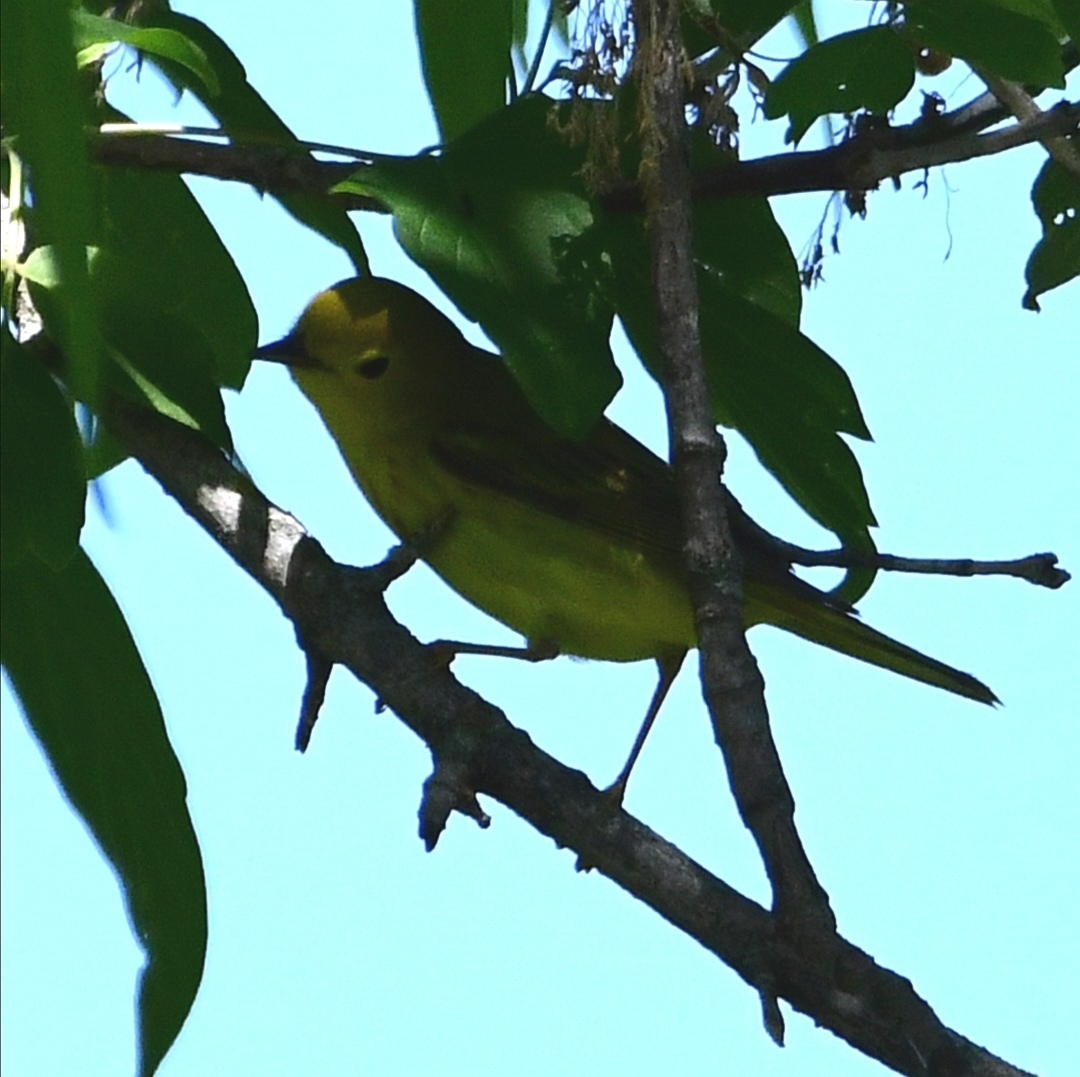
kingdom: Animalia
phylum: Chordata
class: Aves
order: Passeriformes
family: Parulidae
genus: Setophaga
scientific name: Setophaga petechia
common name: Yellow warbler
